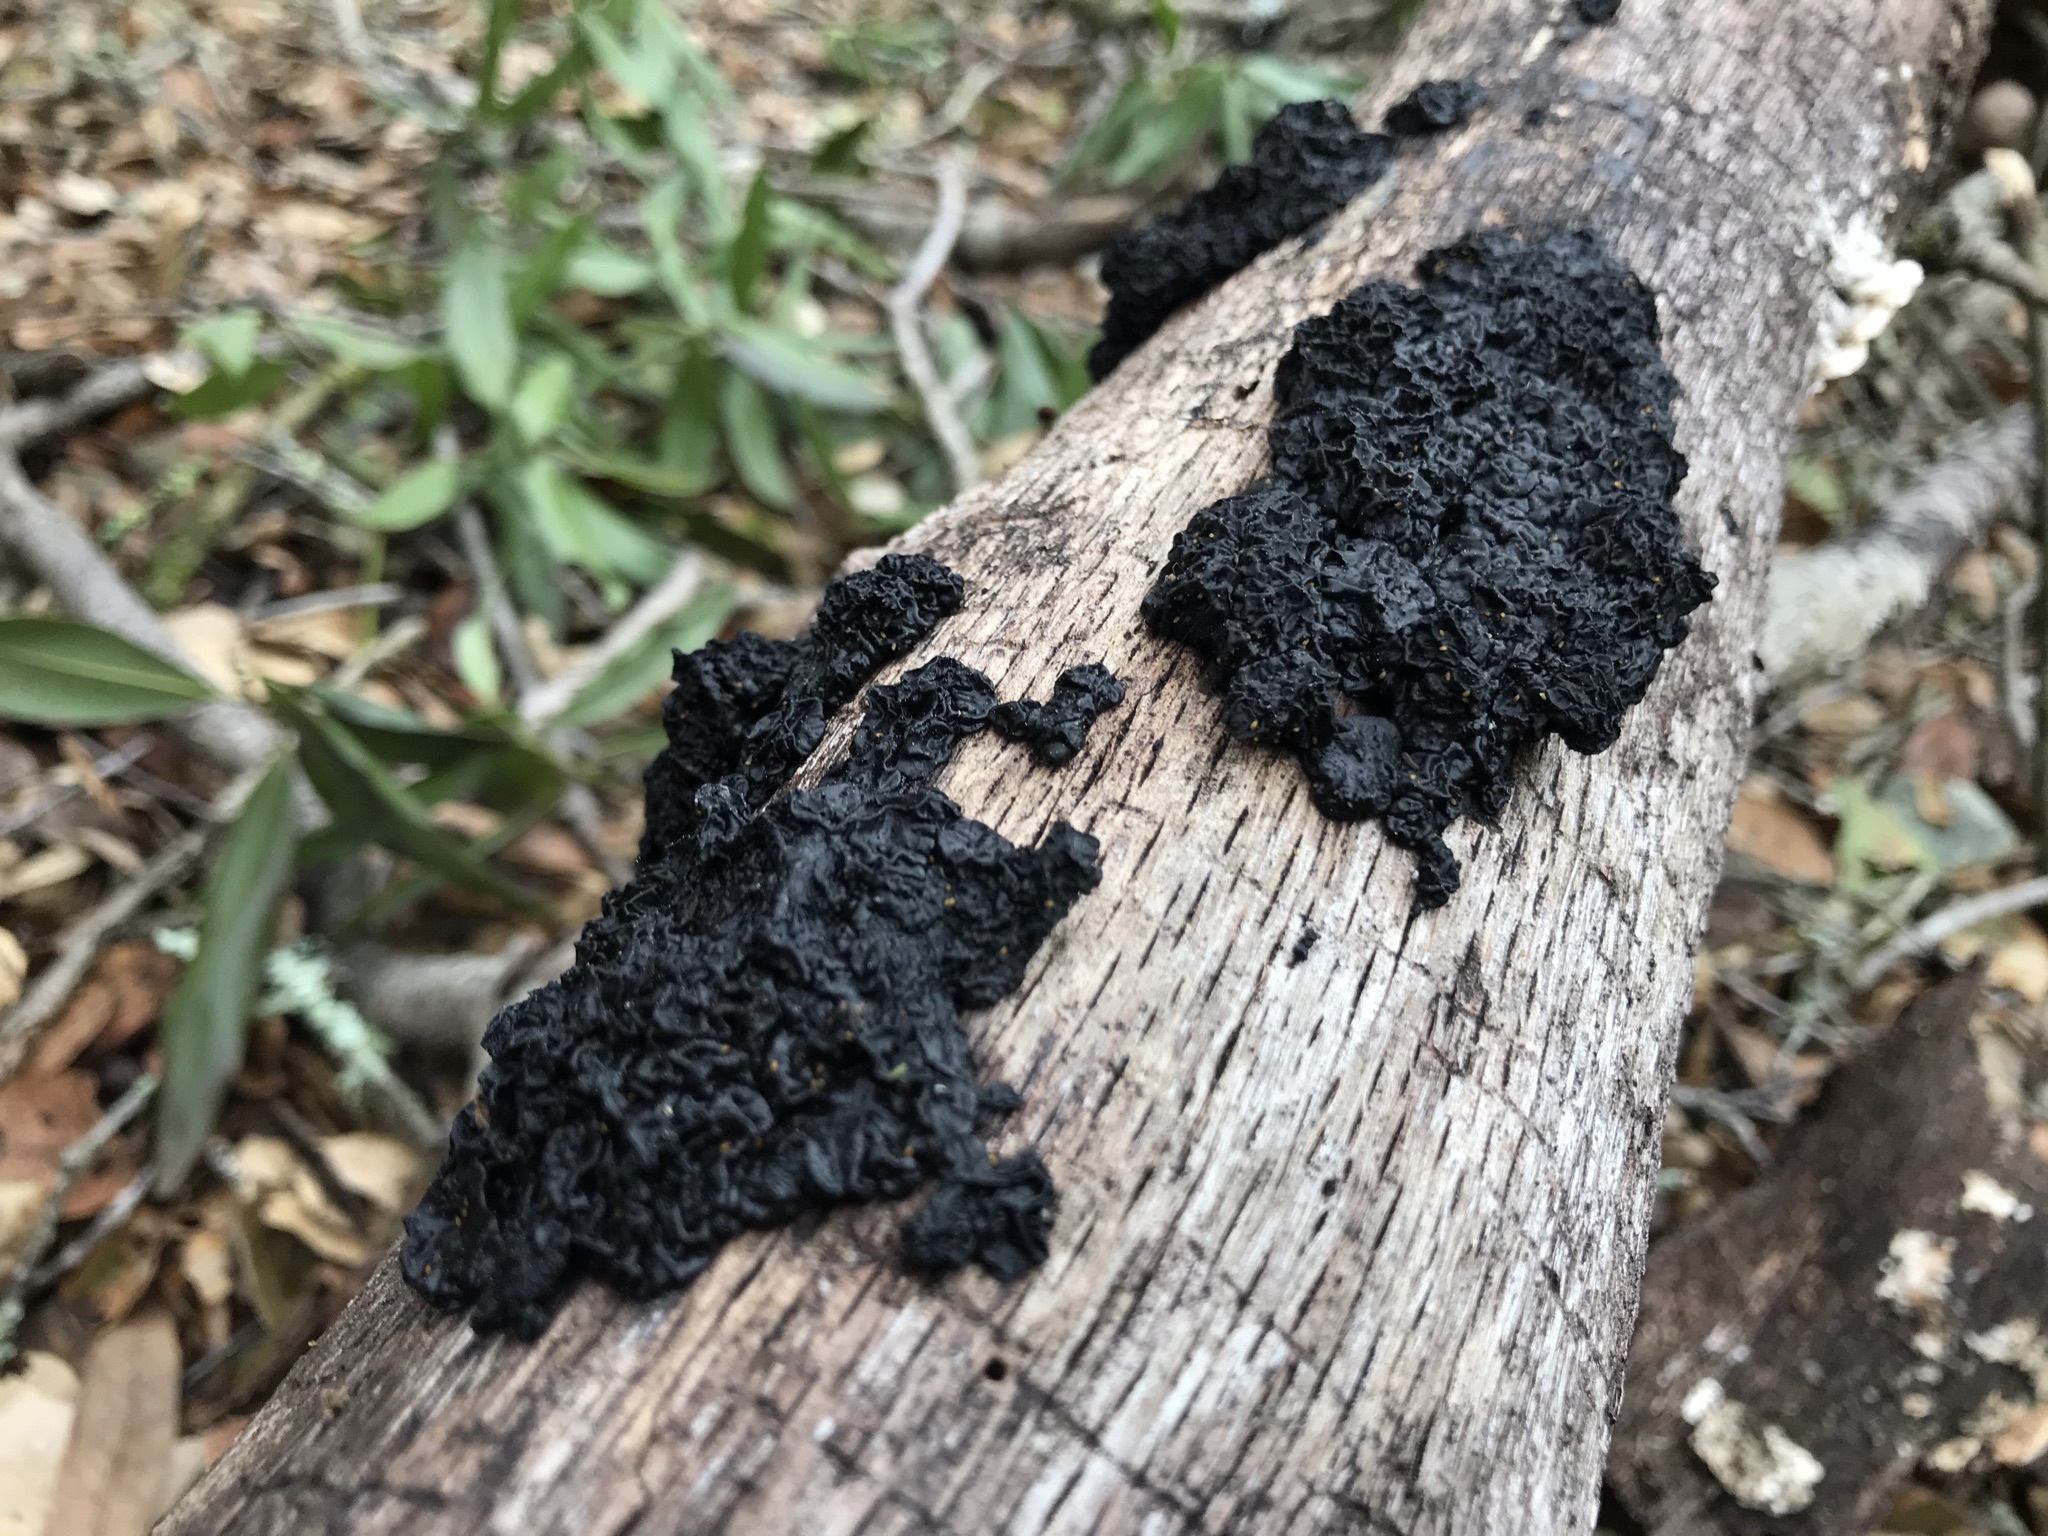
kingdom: Fungi
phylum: Basidiomycota
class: Agaricomycetes
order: Auriculariales
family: Auriculariaceae
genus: Exidia
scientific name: Exidia glandulosa
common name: Witches' butter
